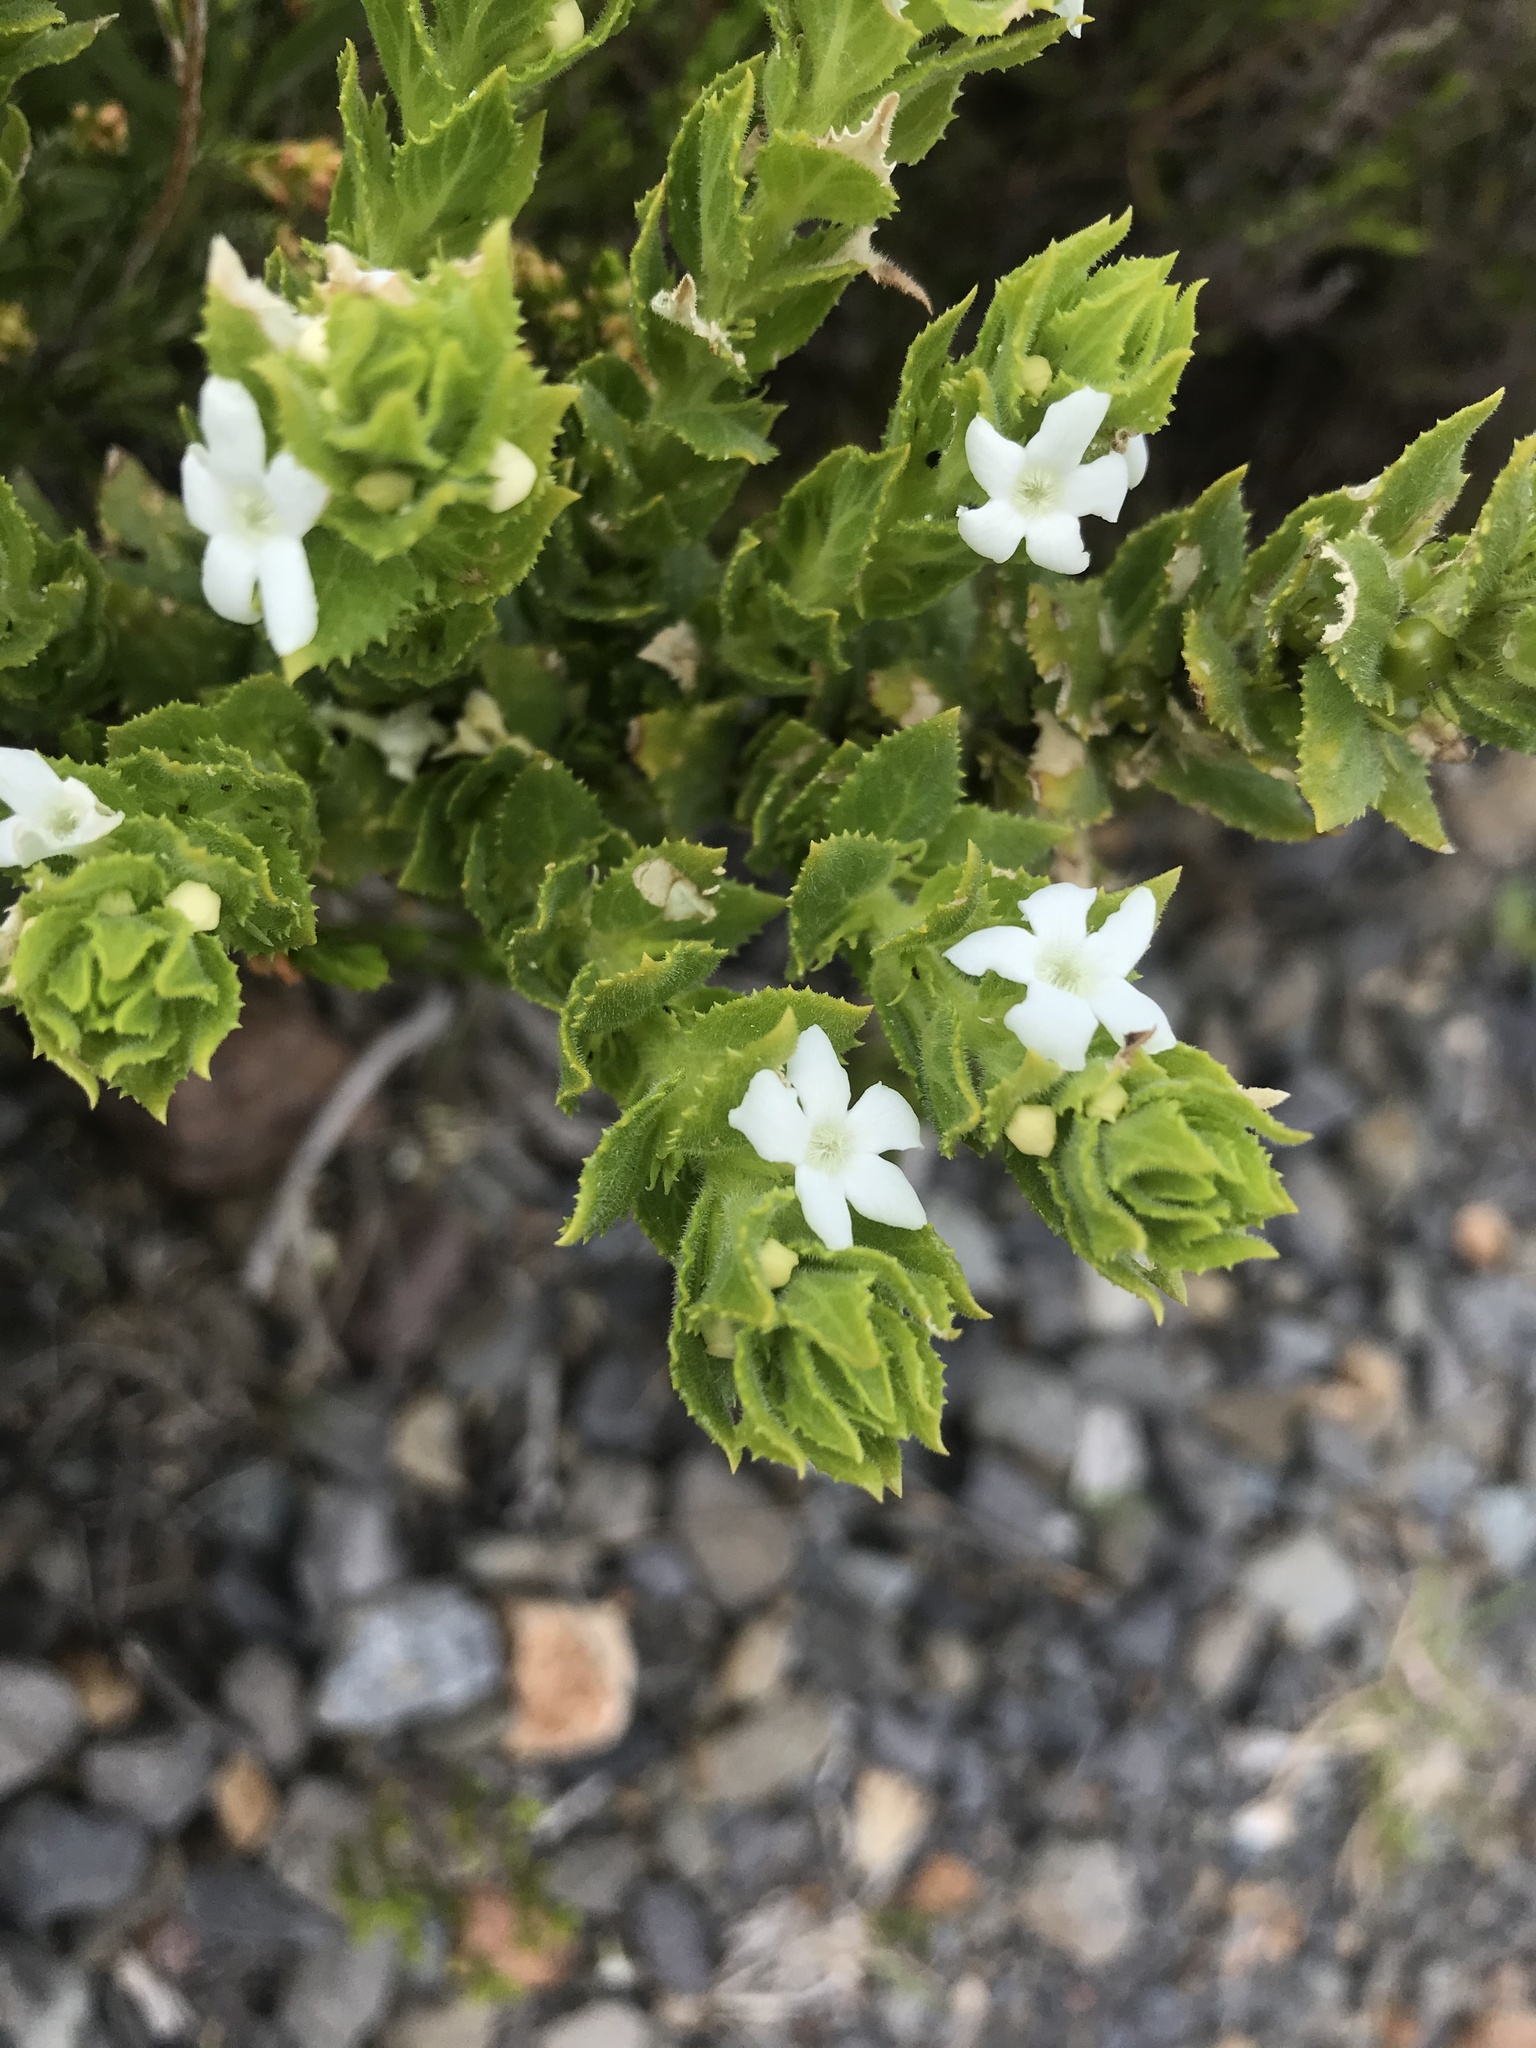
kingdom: Plantae
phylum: Tracheophyta
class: Magnoliopsida
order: Lamiales
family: Scrophulariaceae
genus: Oftia
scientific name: Oftia africana
